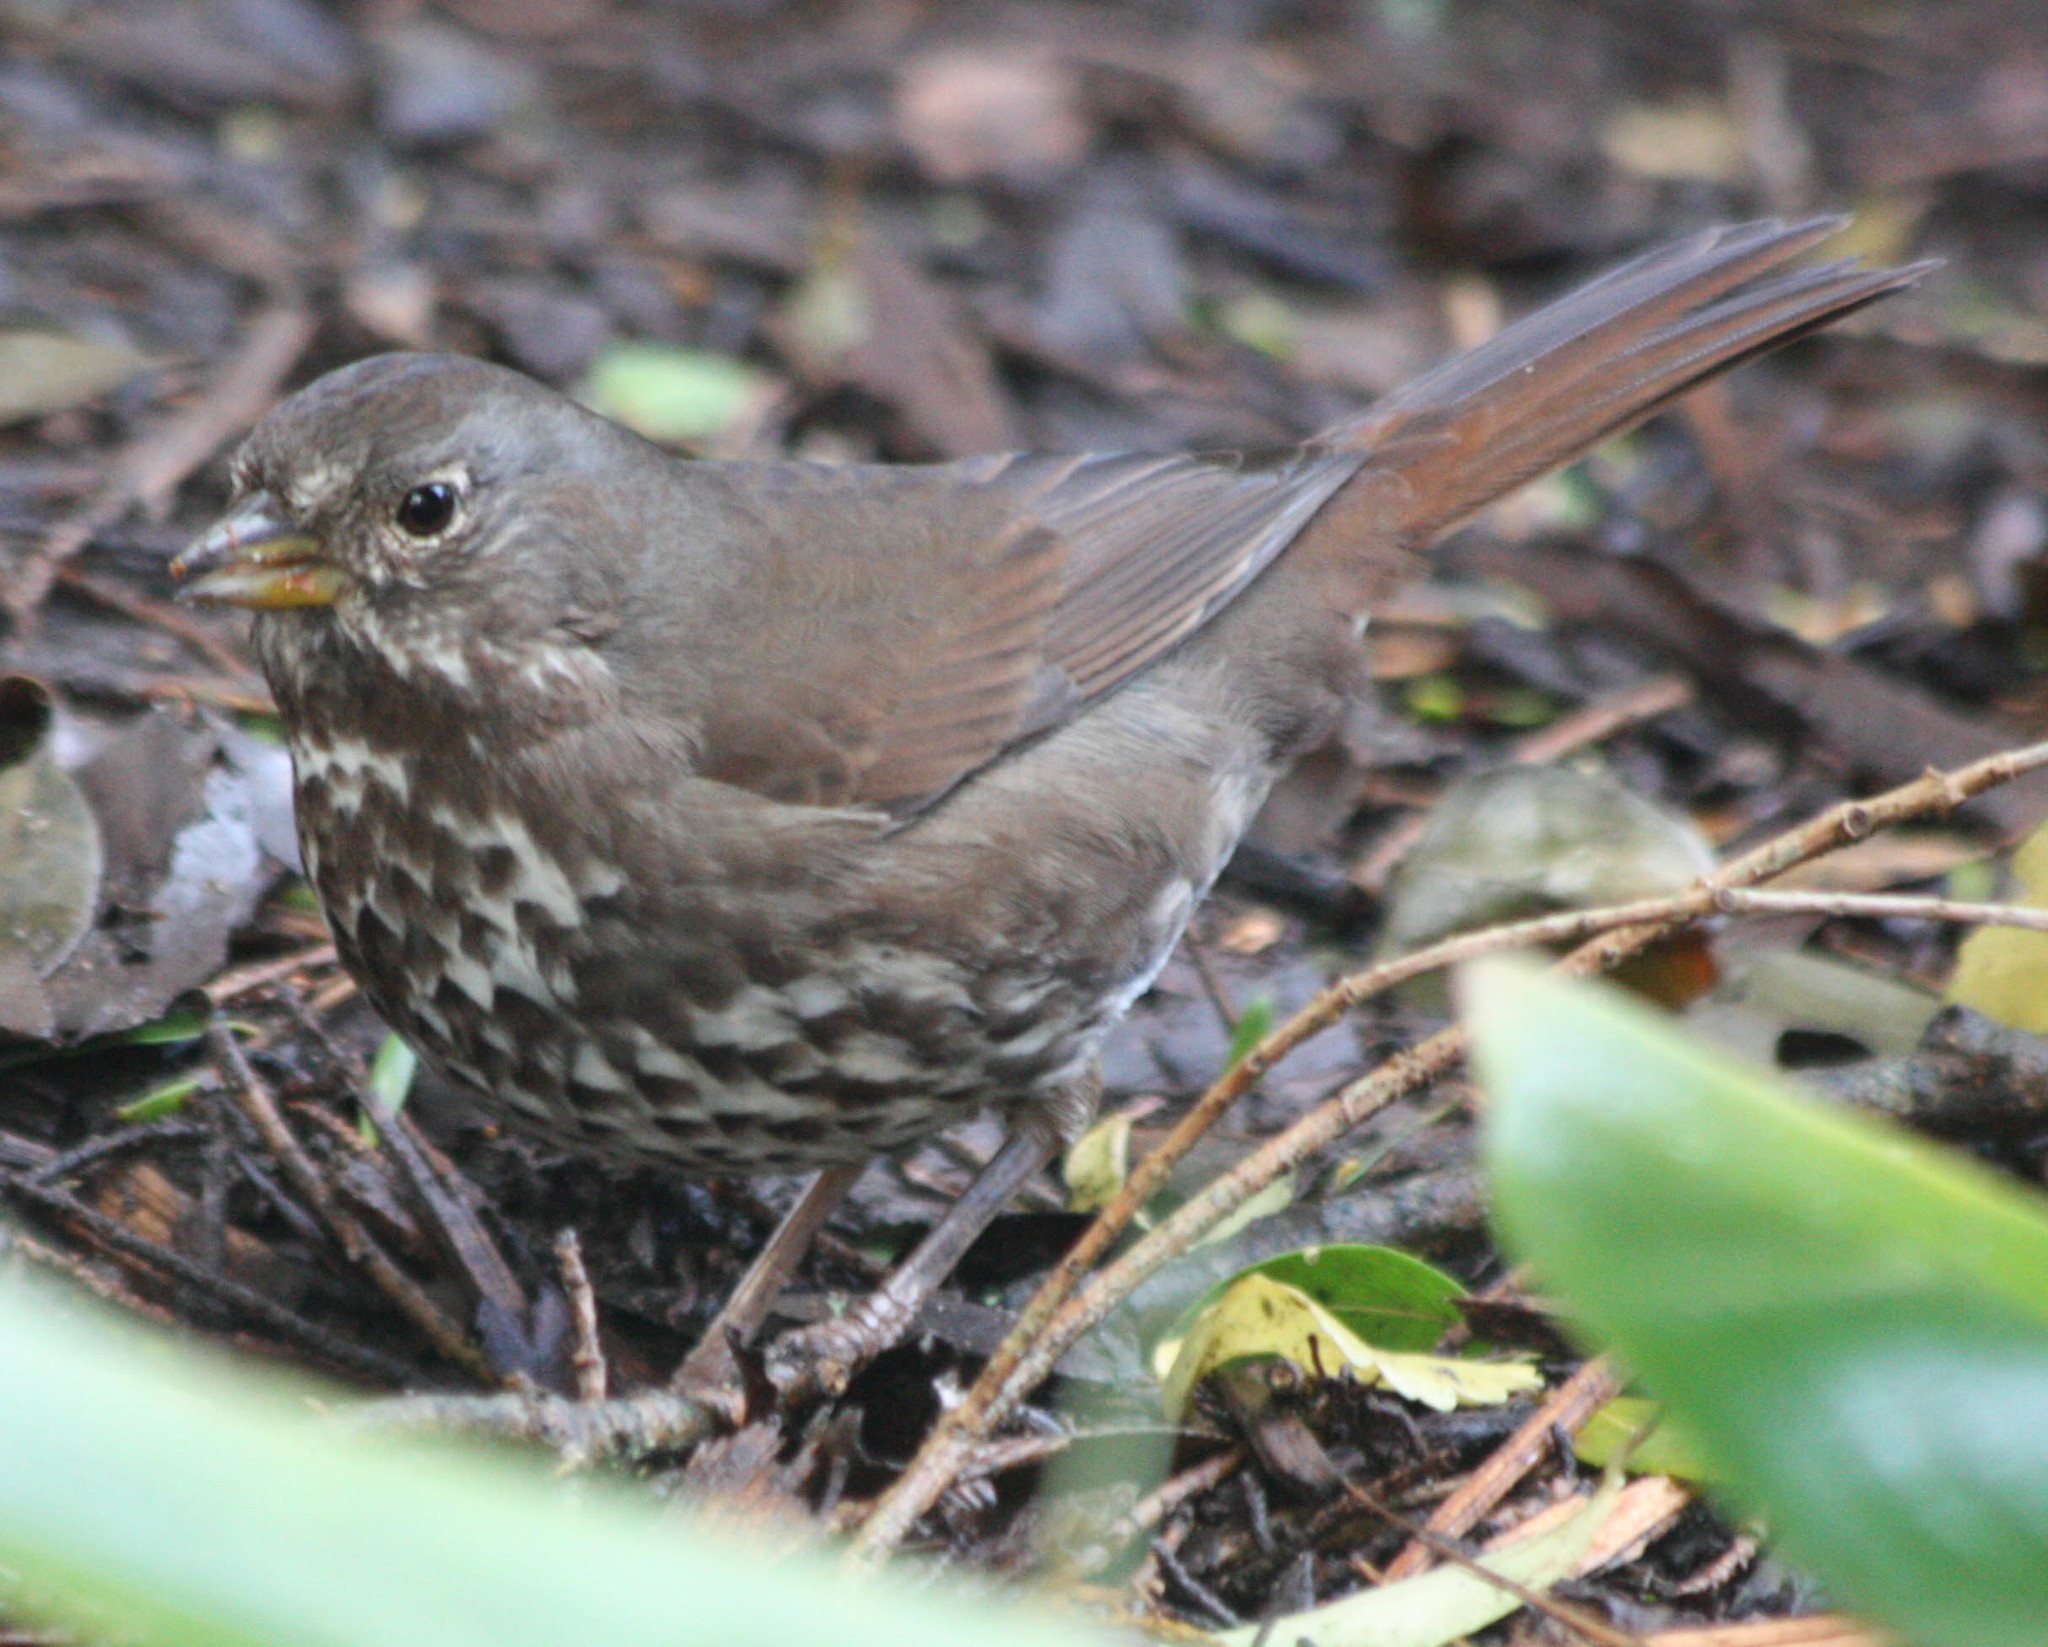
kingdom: Animalia
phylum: Chordata
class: Aves
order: Passeriformes
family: Passerellidae
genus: Passerella
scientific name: Passerella iliaca
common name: Fox sparrow
